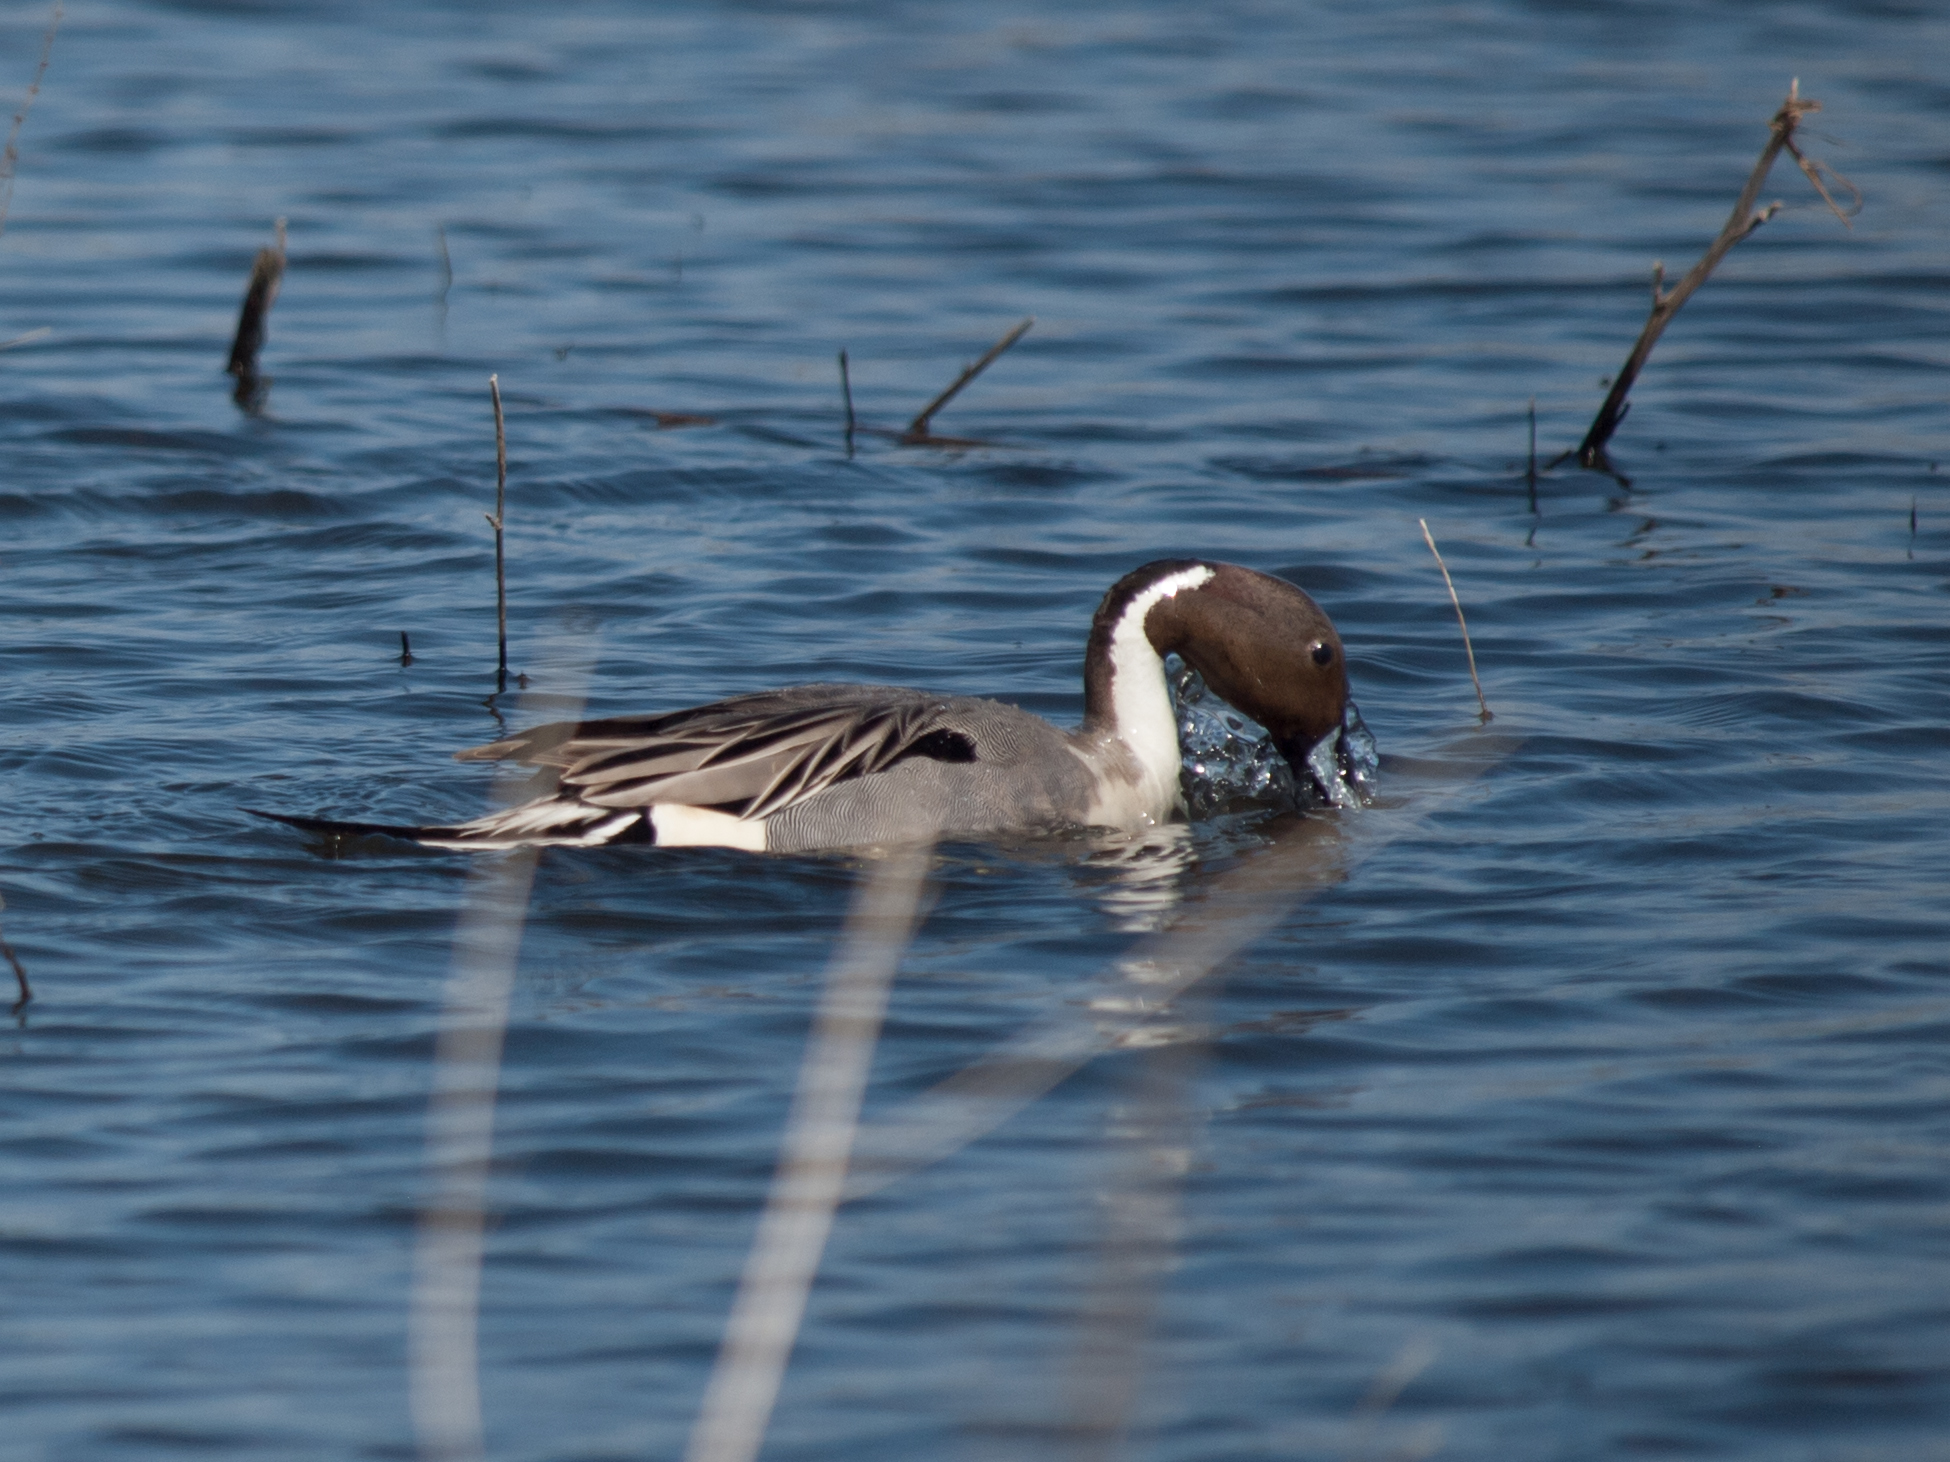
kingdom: Animalia
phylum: Chordata
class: Aves
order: Anseriformes
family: Anatidae
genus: Anas
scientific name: Anas acuta
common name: Northern pintail
